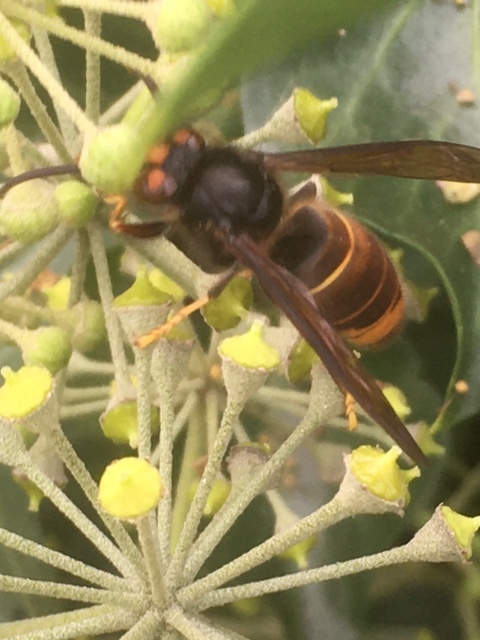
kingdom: Animalia
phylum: Arthropoda
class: Insecta
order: Hymenoptera
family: Vespidae
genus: Vespa
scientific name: Vespa velutina
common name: Asian hornet
